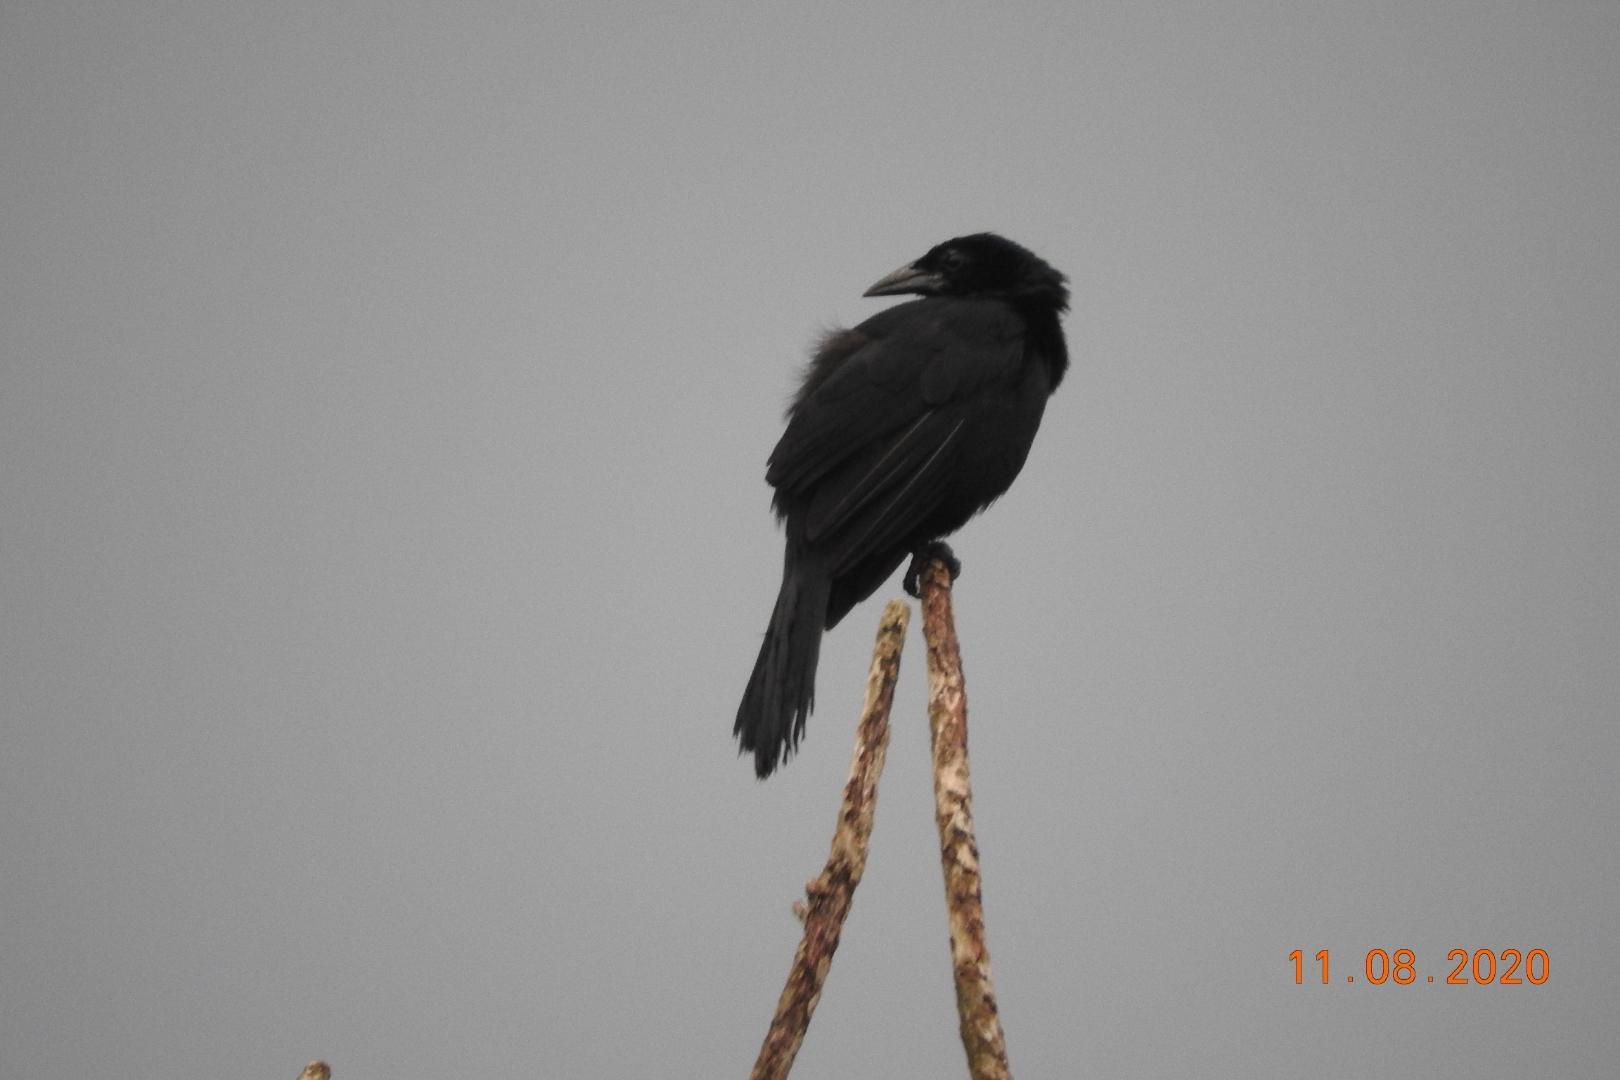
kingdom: Animalia
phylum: Chordata
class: Aves
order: Passeriformes
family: Icteridae
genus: Dives
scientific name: Dives dives
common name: Melodious blackbird
